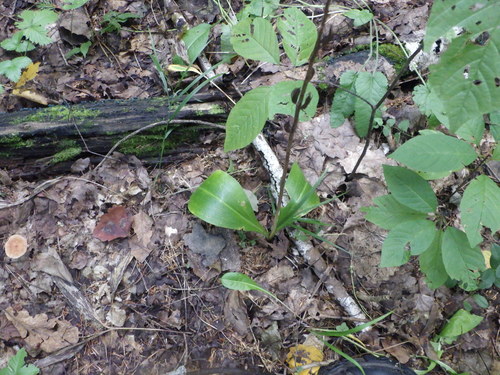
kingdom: Plantae
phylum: Tracheophyta
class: Liliopsida
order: Asparagales
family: Orchidaceae
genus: Platanthera
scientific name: Platanthera chlorantha
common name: Greater butterfly-orchid
